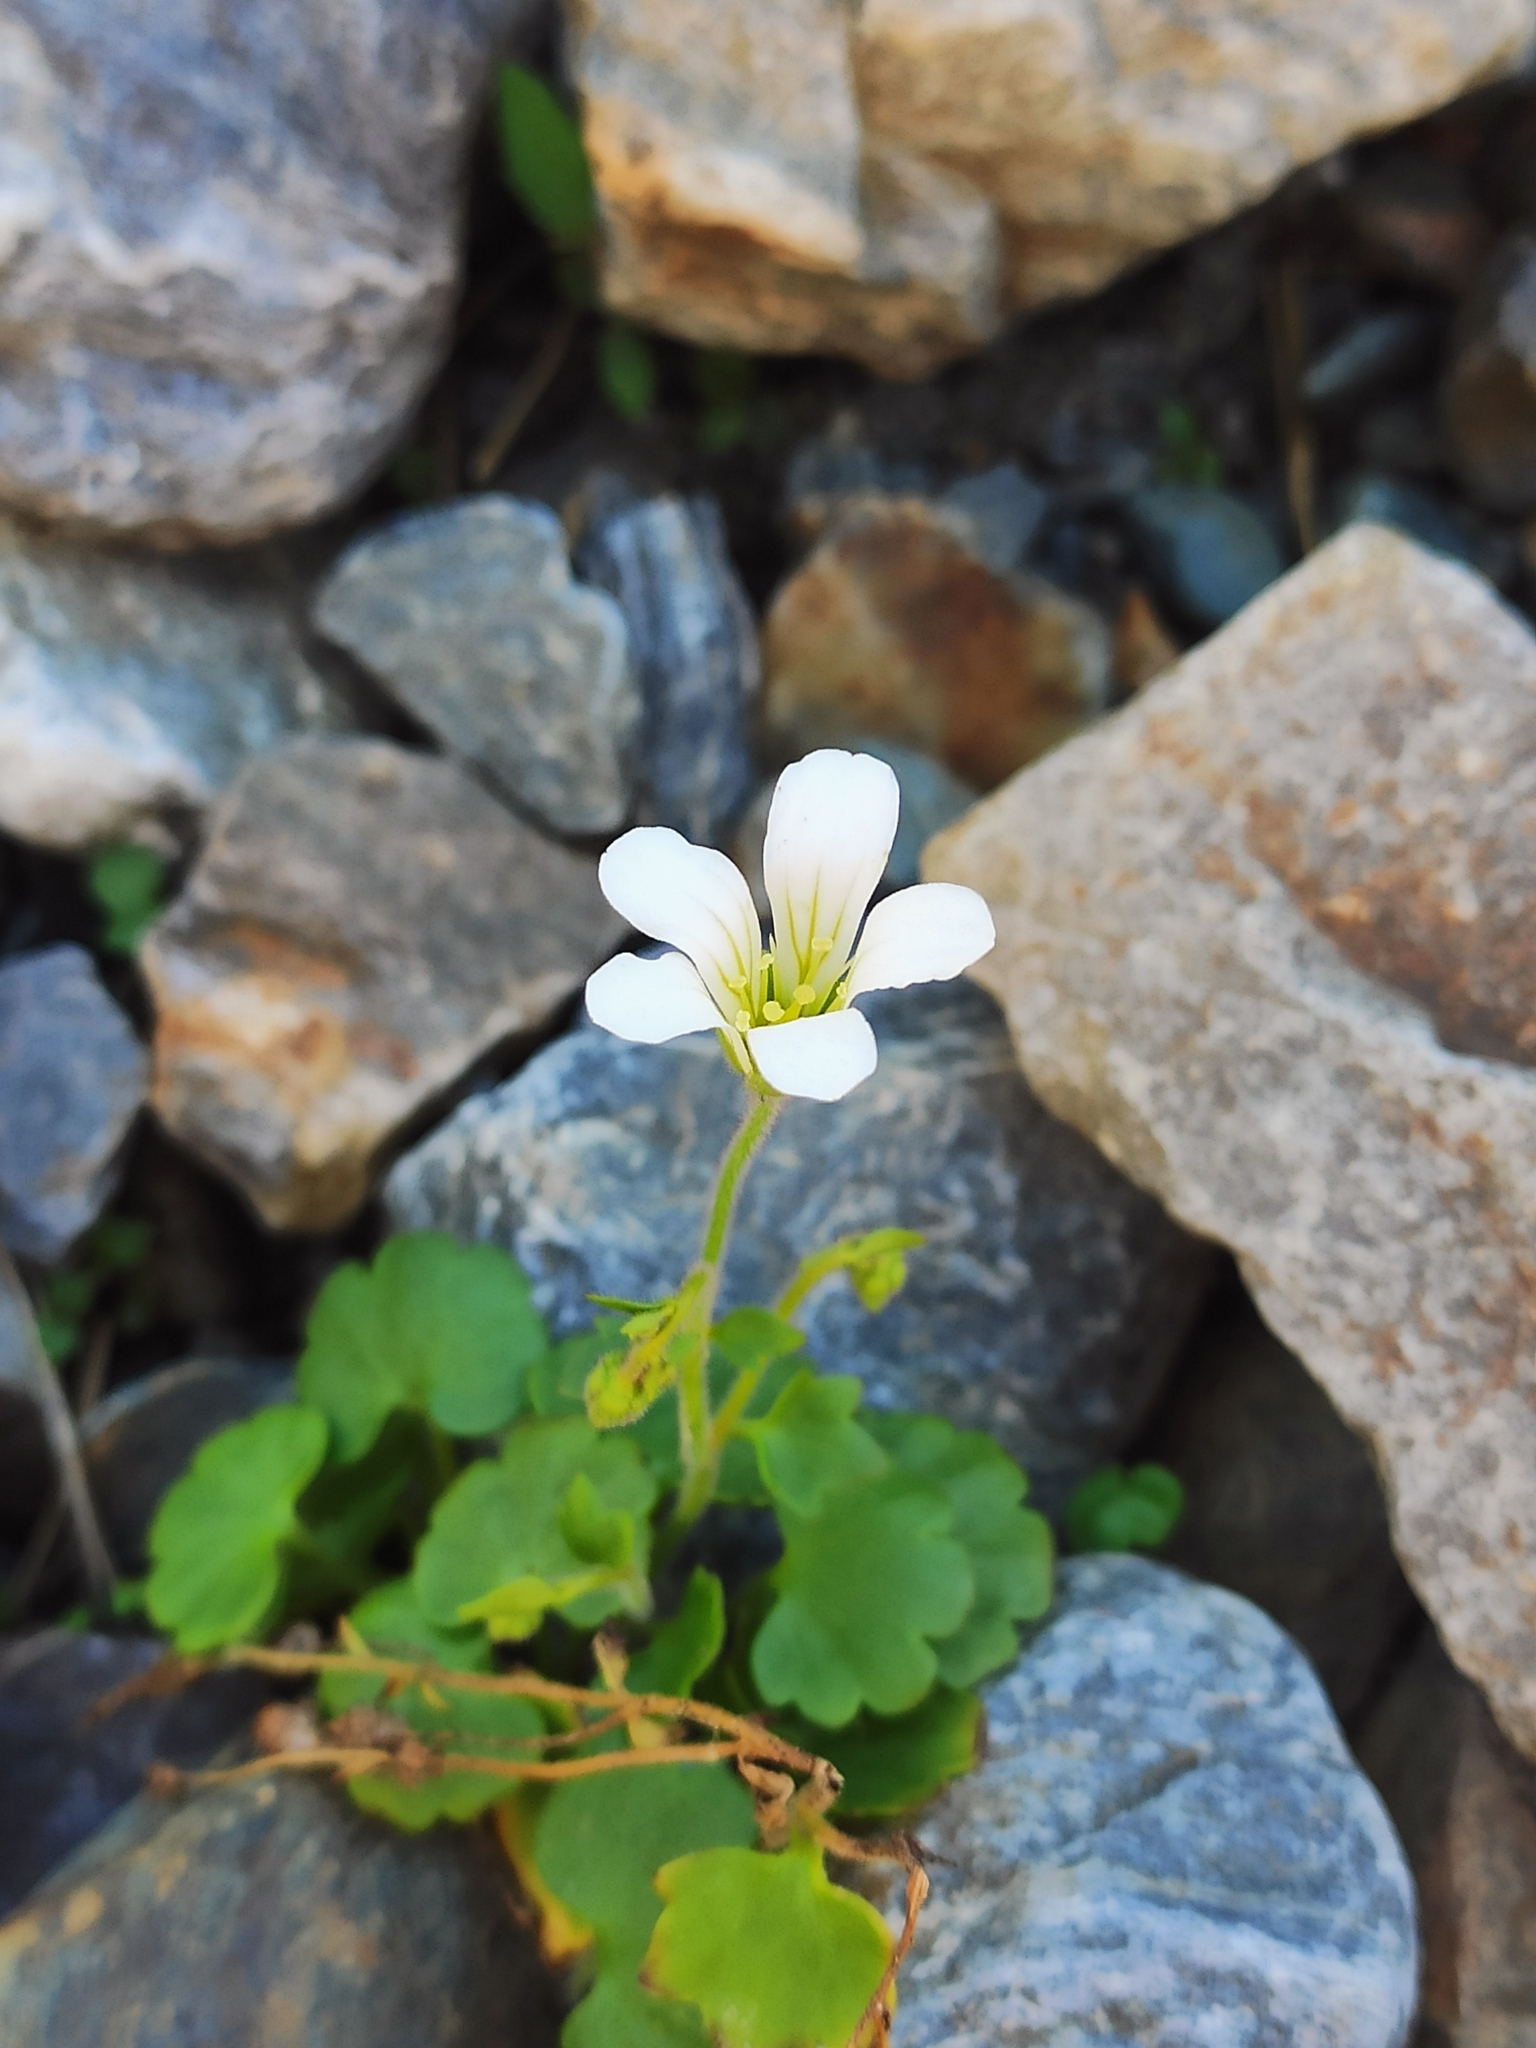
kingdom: Plantae
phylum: Tracheophyta
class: Magnoliopsida
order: Saxifragales
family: Saxifragaceae
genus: Saxifraga
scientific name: Saxifraga sibirica
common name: Siberian saxifrage
